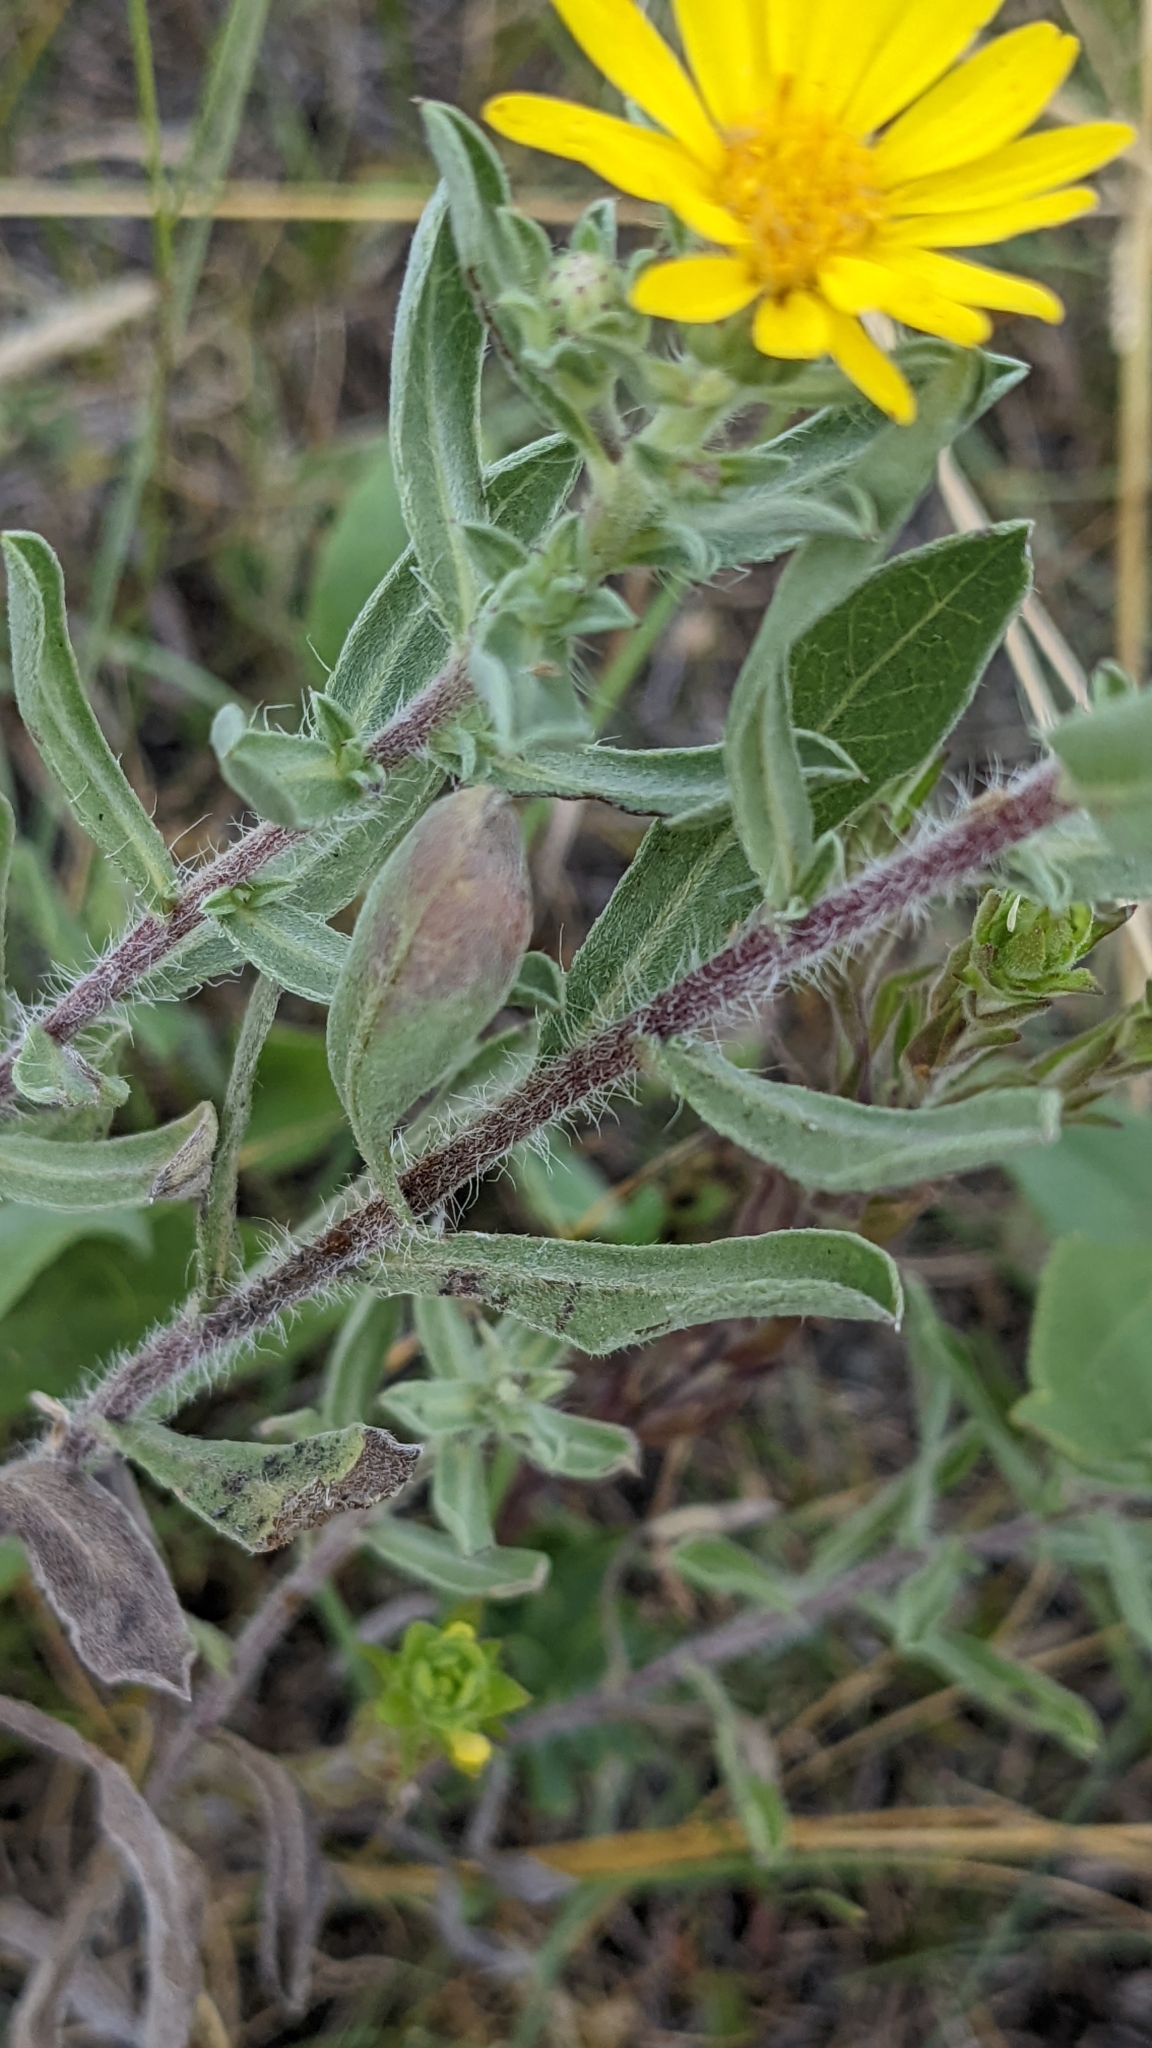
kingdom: Plantae
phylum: Tracheophyta
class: Magnoliopsida
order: Asterales
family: Asteraceae
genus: Heterotheca
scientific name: Heterotheca villosa
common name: Hairy false goldenaster
